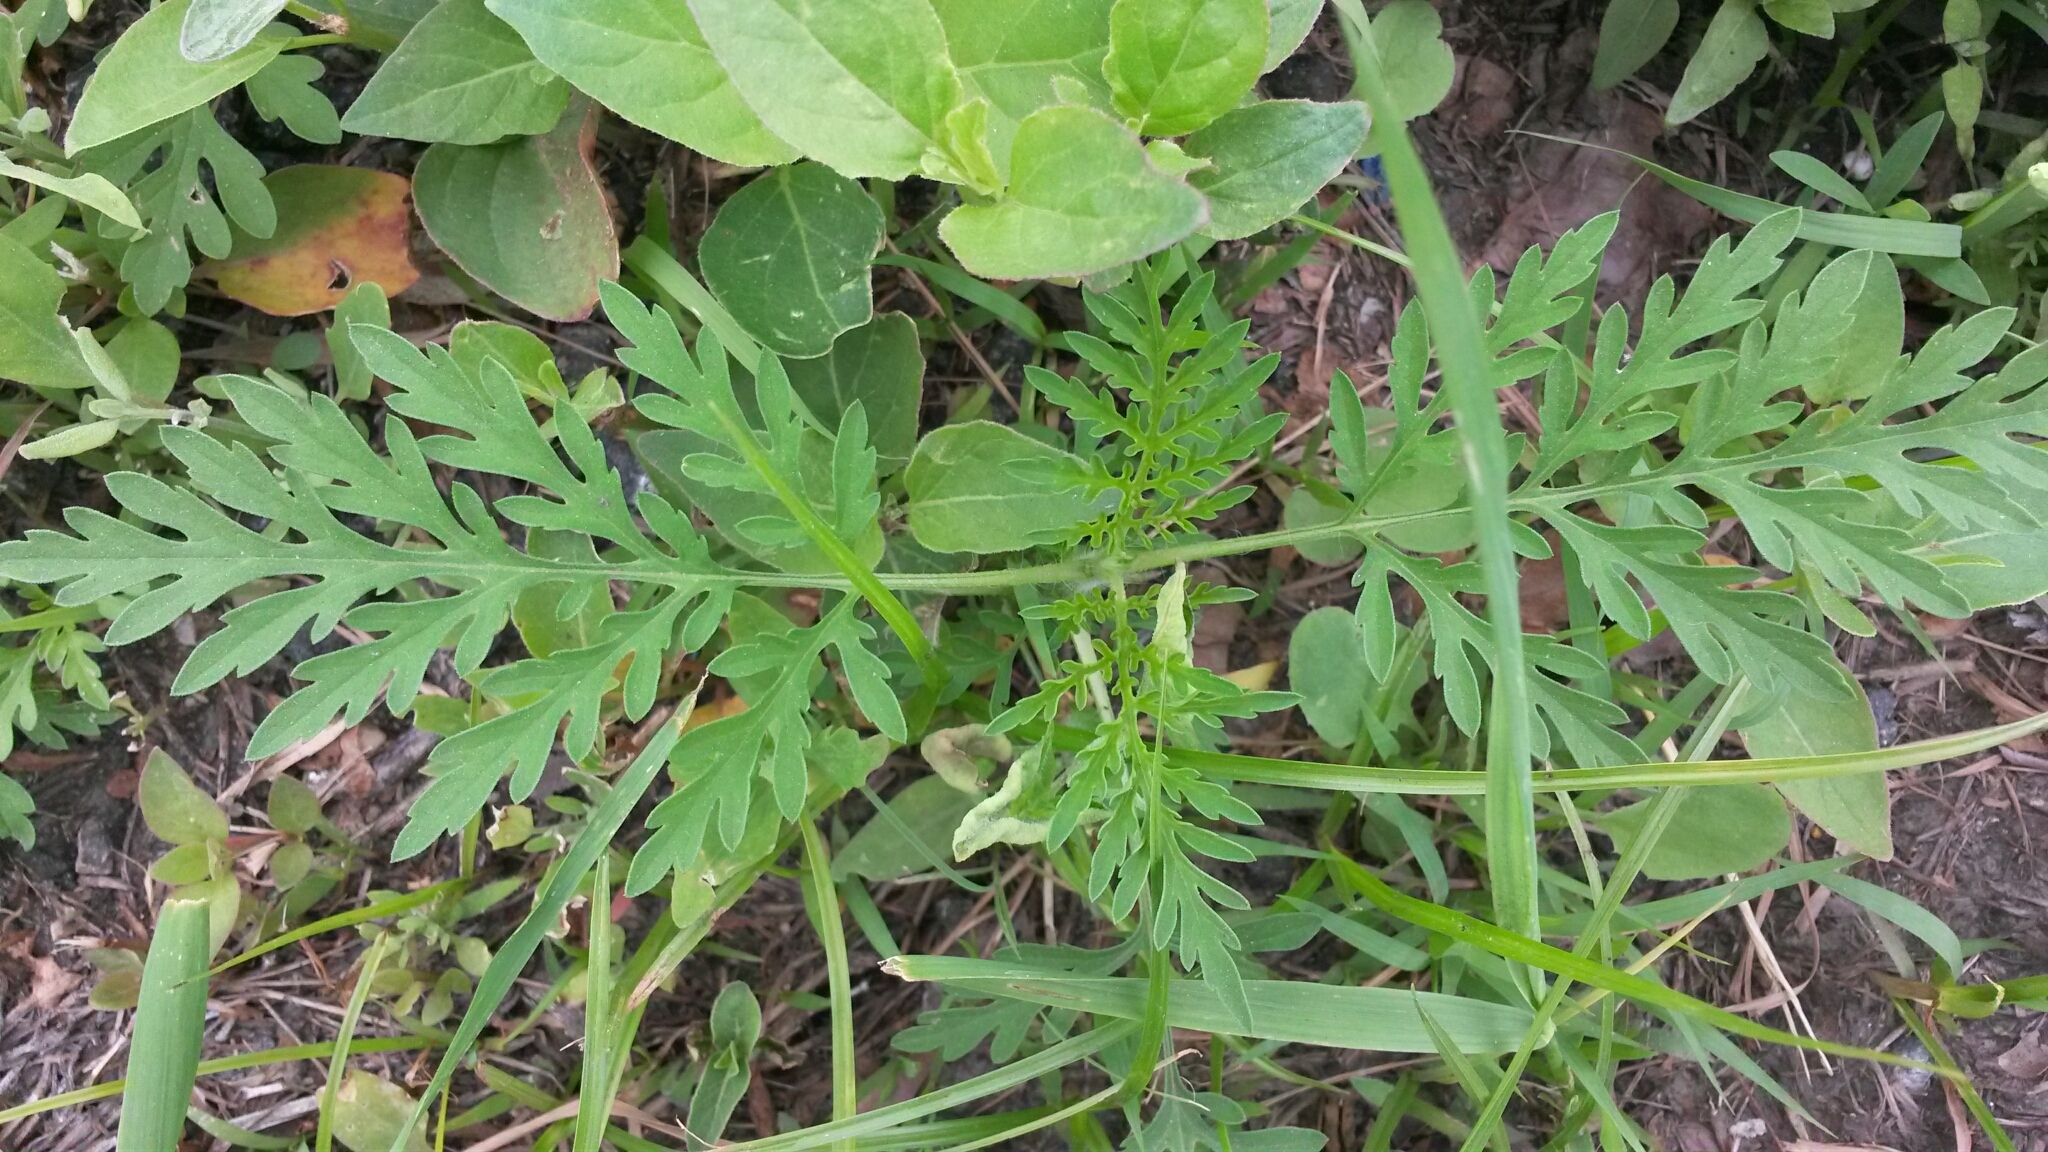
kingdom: Plantae
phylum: Tracheophyta
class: Magnoliopsida
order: Asterales
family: Asteraceae
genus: Ambrosia
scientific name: Ambrosia artemisiifolia
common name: Annual ragweed
